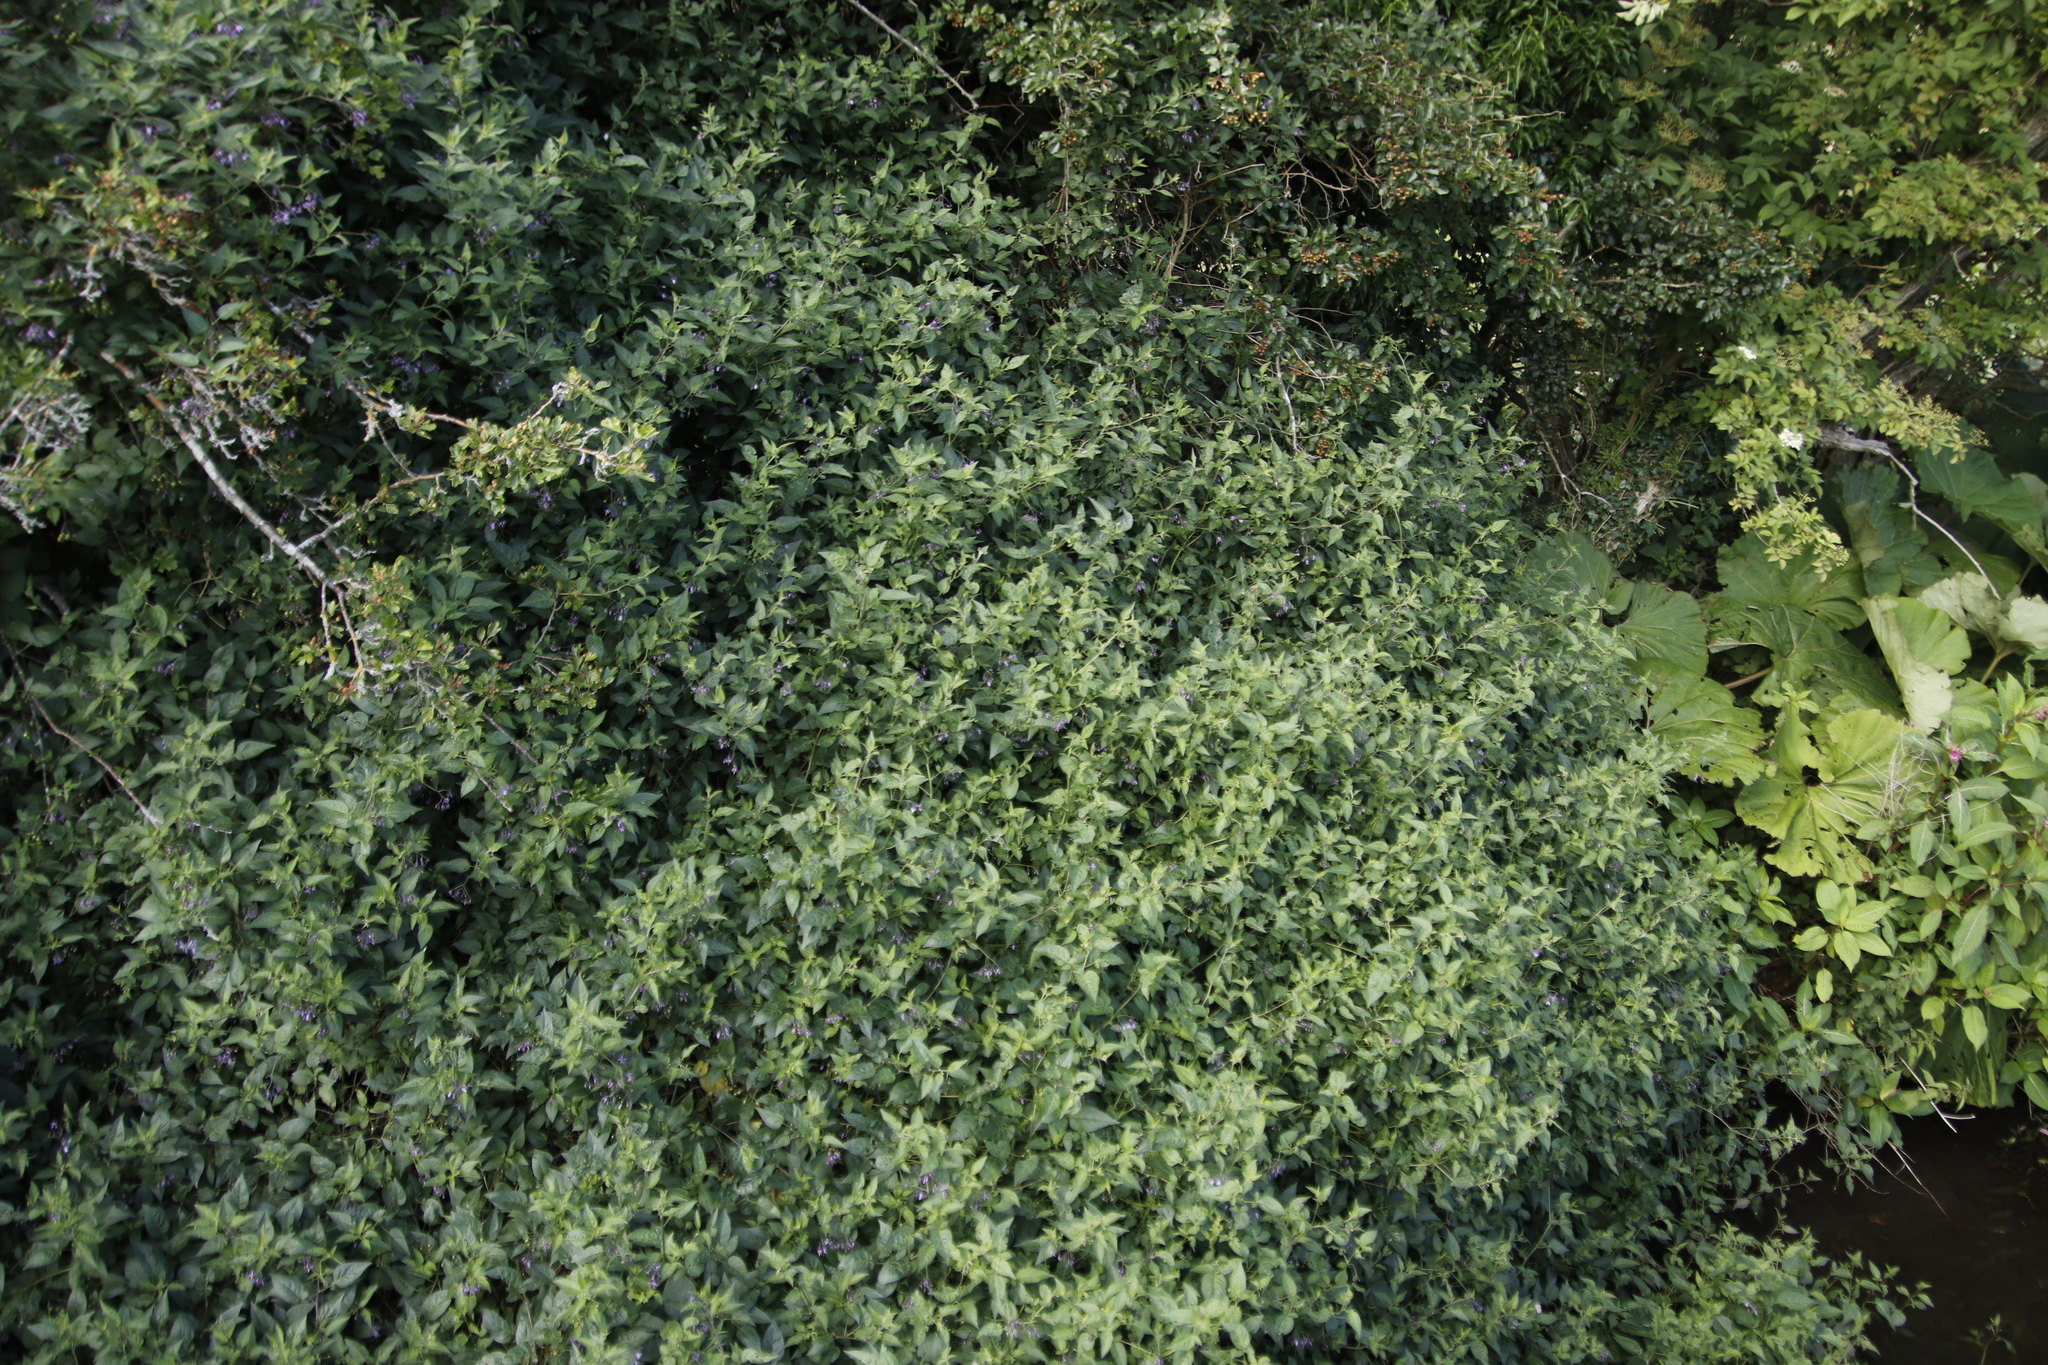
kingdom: Plantae
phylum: Tracheophyta
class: Magnoliopsida
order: Solanales
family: Solanaceae
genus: Solanum
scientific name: Solanum dulcamara
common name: Climbing nightshade
